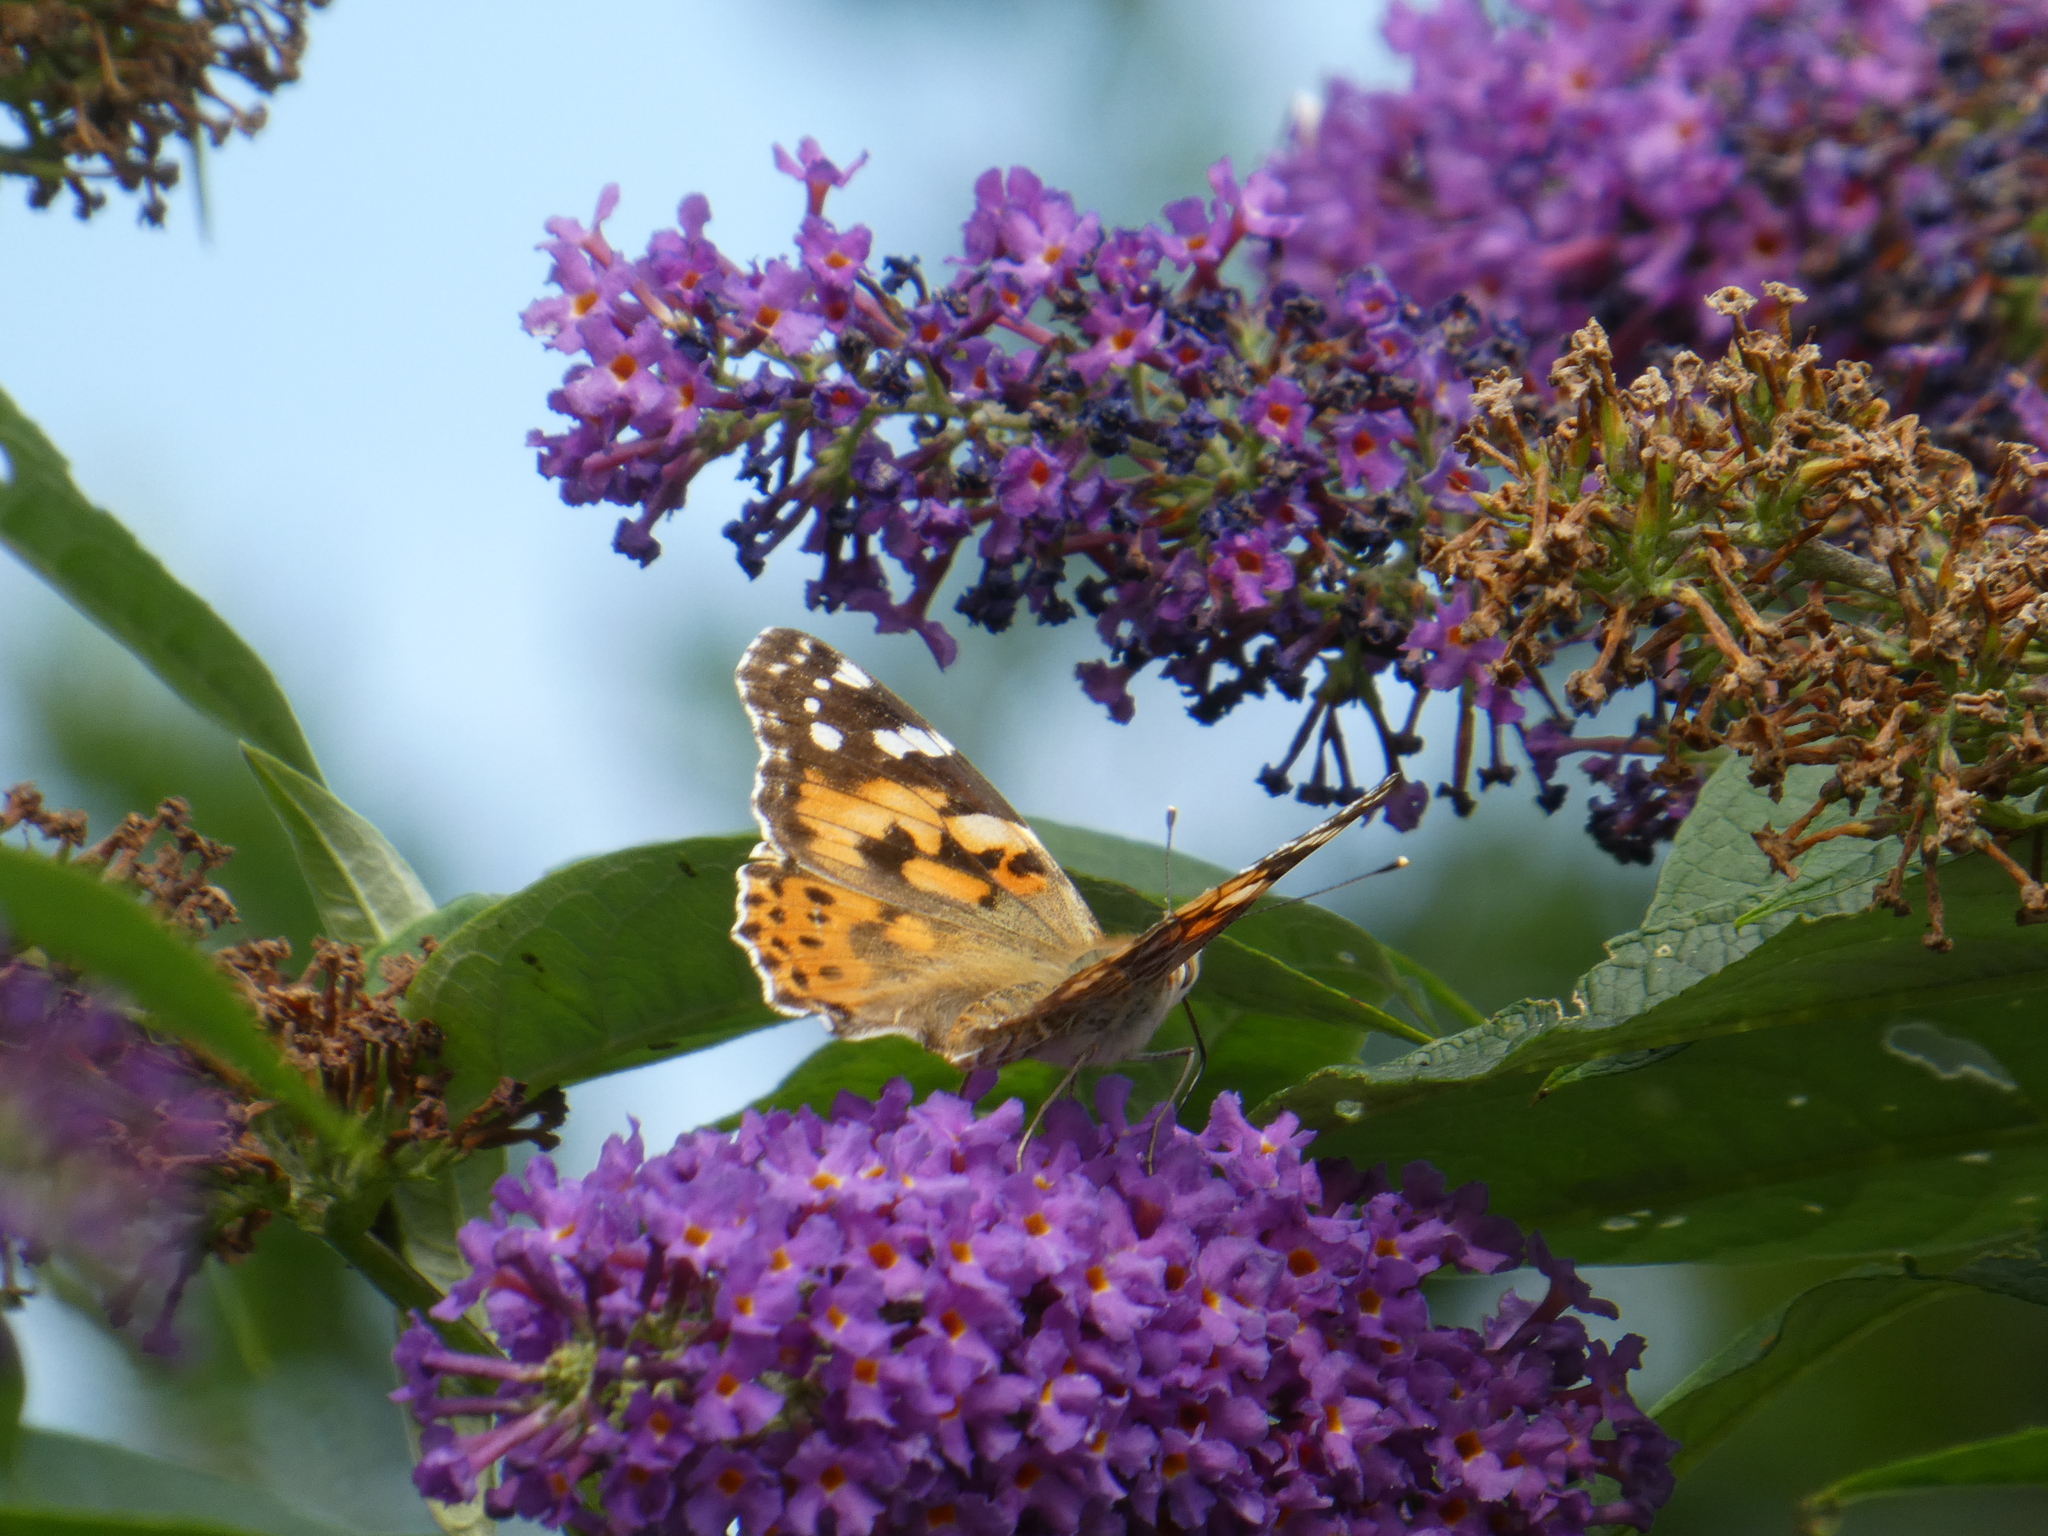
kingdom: Animalia
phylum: Arthropoda
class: Insecta
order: Lepidoptera
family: Nymphalidae
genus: Vanessa
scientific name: Vanessa cardui
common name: Painted lady
